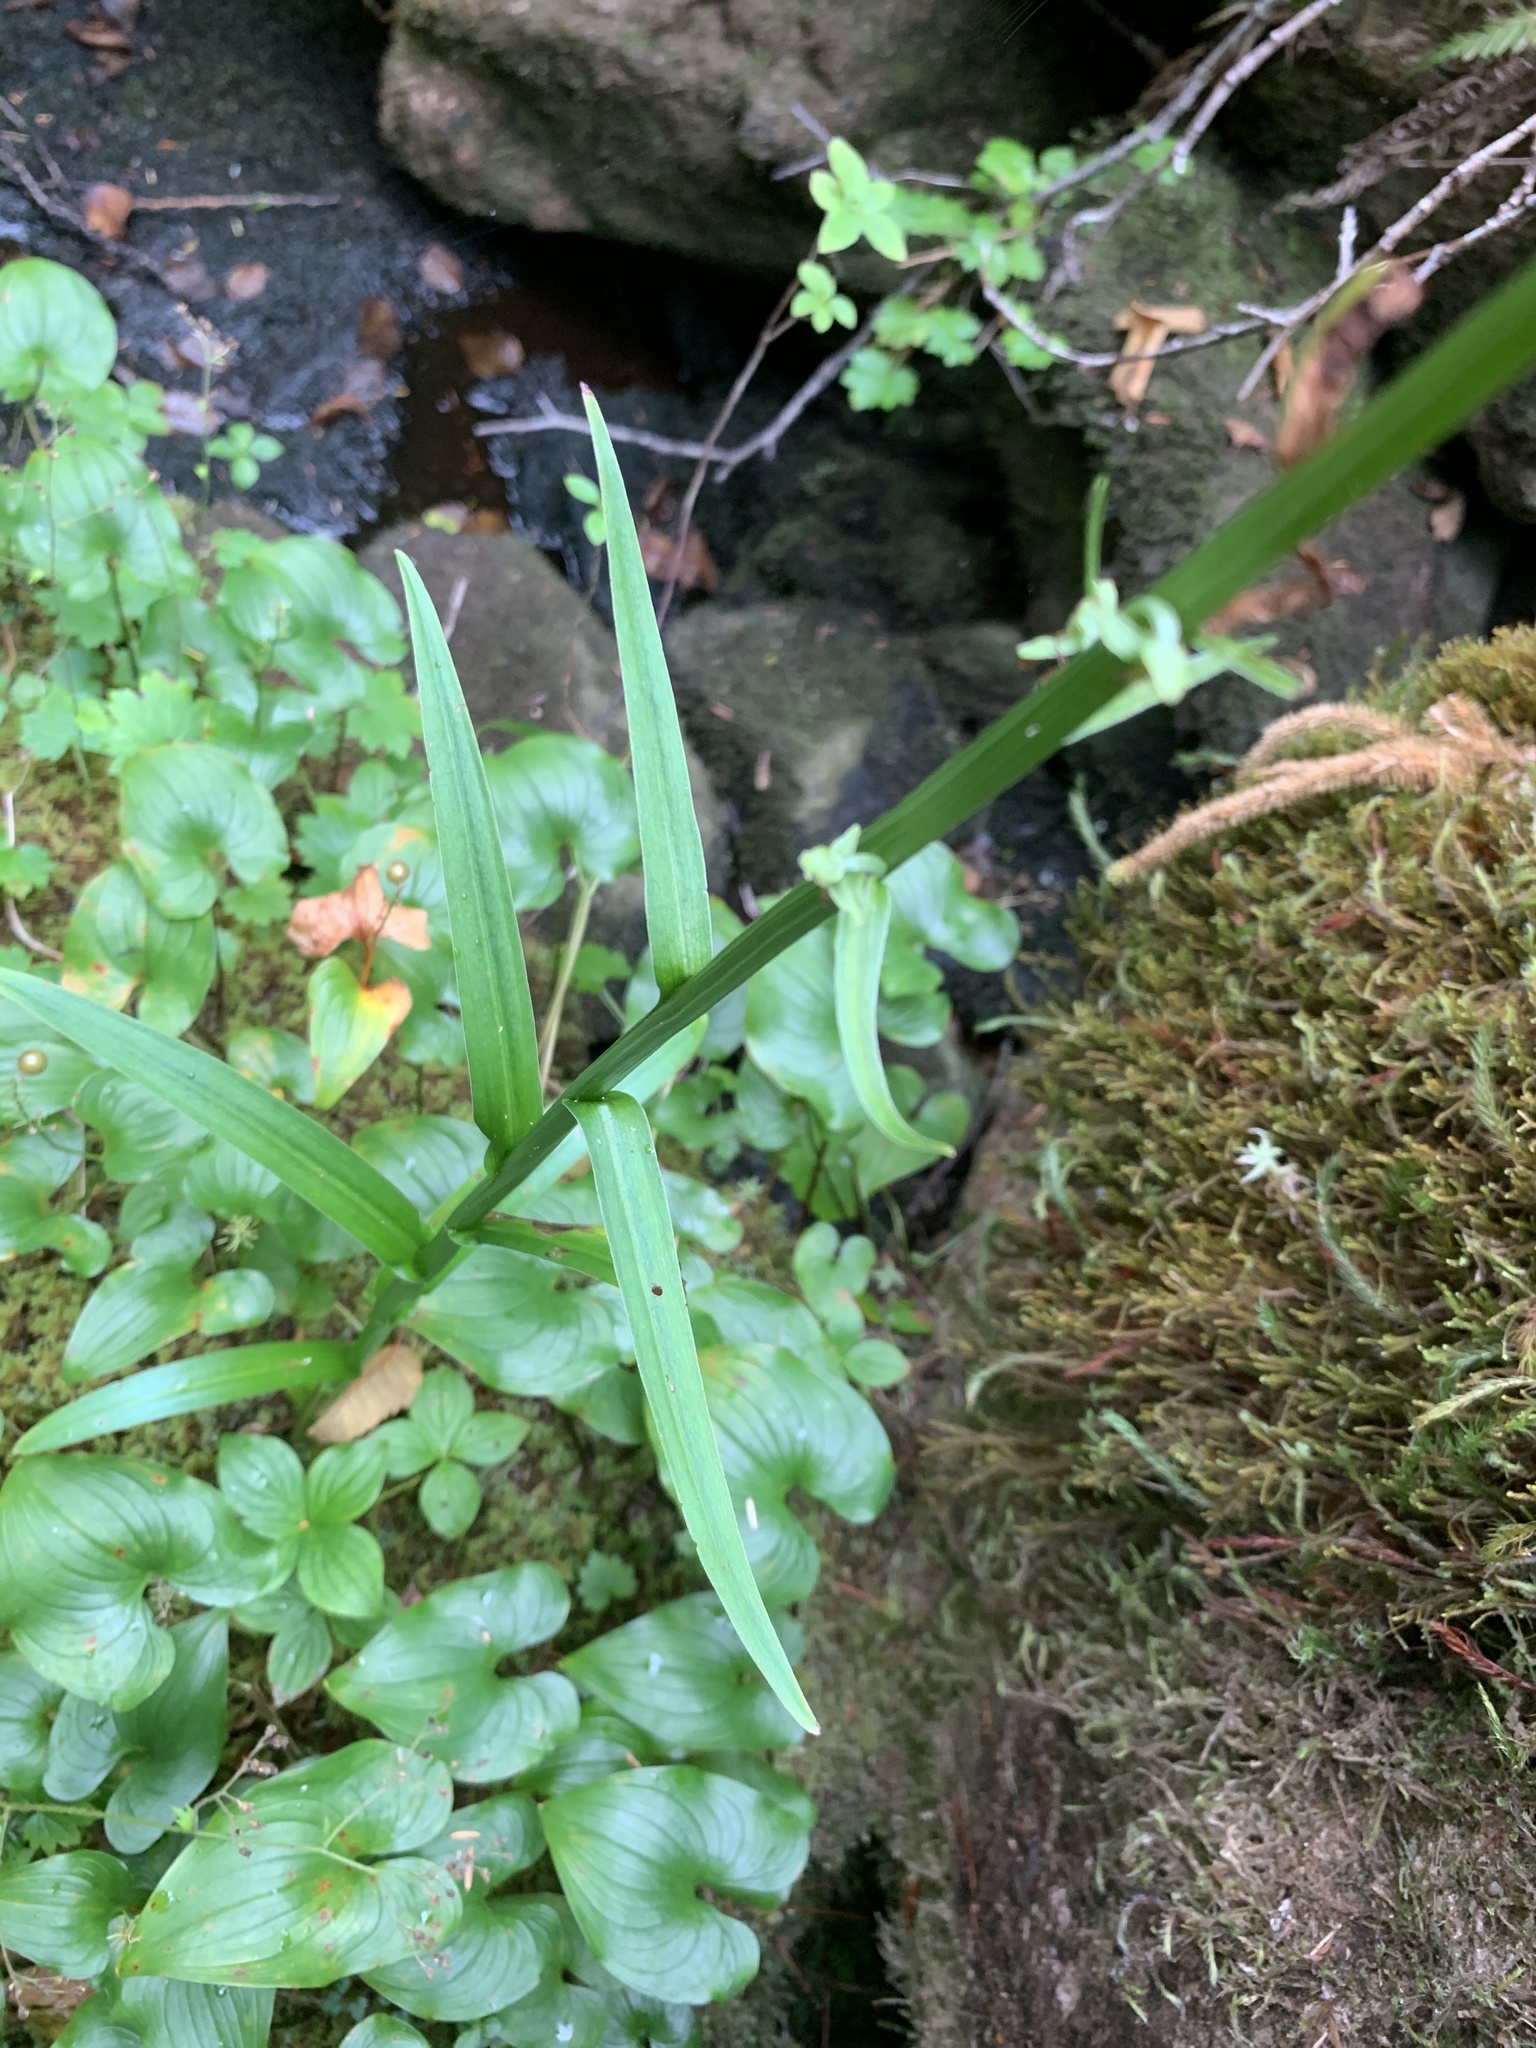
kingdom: Plantae
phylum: Tracheophyta
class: Liliopsida
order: Asparagales
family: Orchidaceae
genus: Platanthera
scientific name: Platanthera stricta
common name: Slender bog orchid
